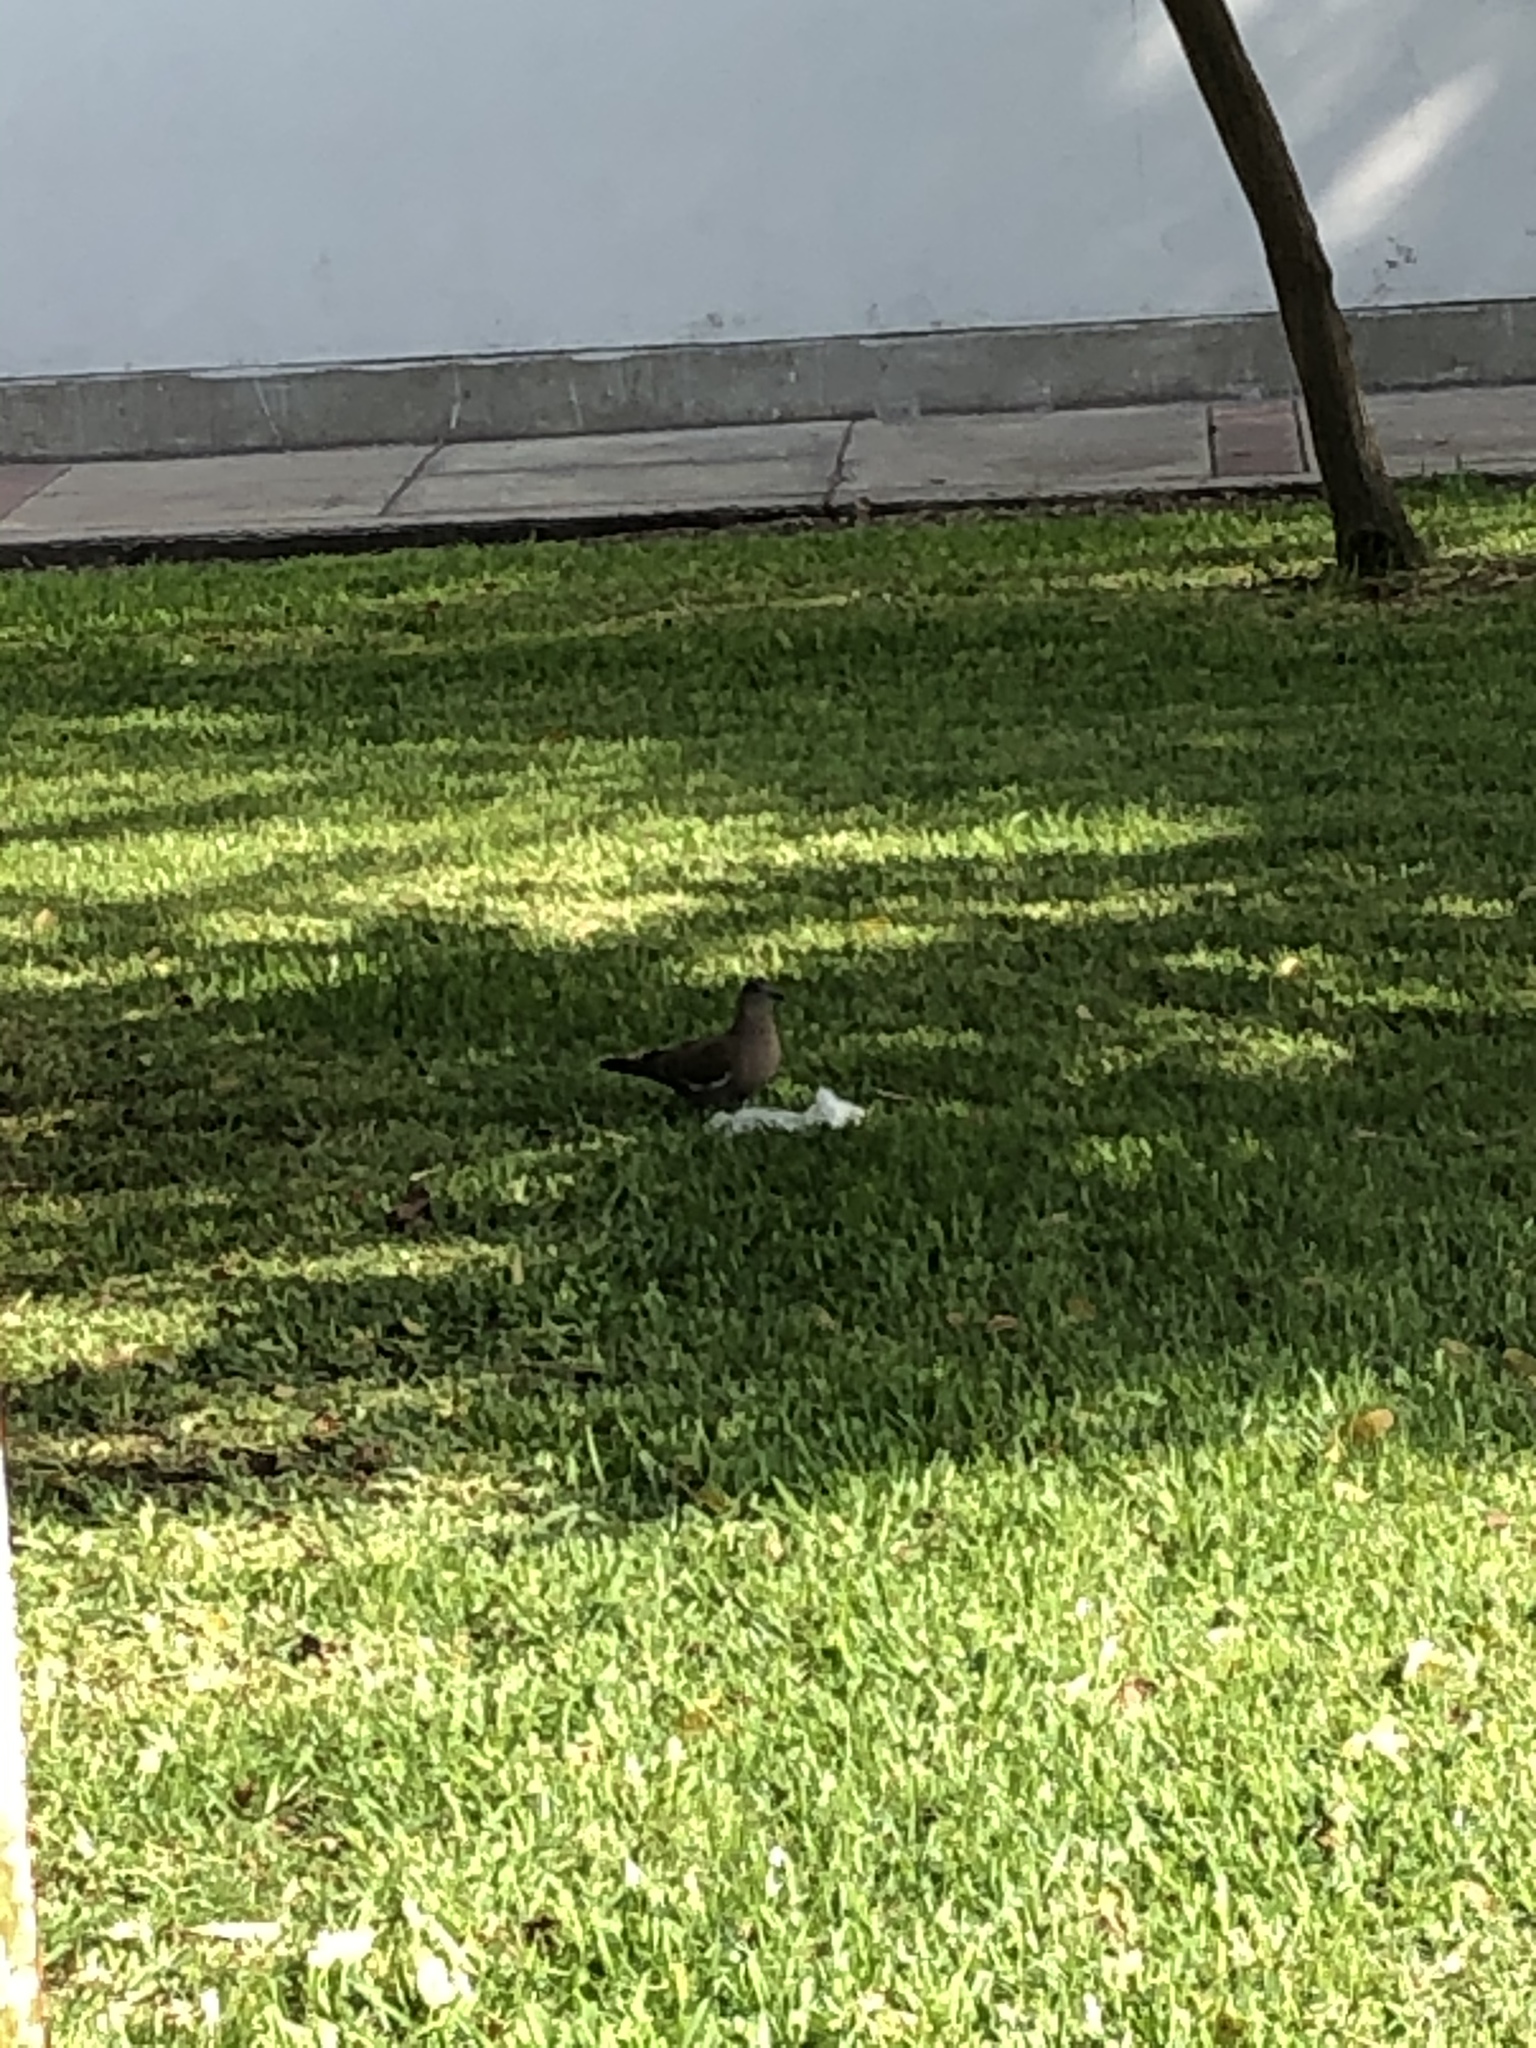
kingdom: Animalia
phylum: Chordata
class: Aves
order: Columbiformes
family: Columbidae
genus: Zenaida
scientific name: Zenaida meloda
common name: West peruvian dove
